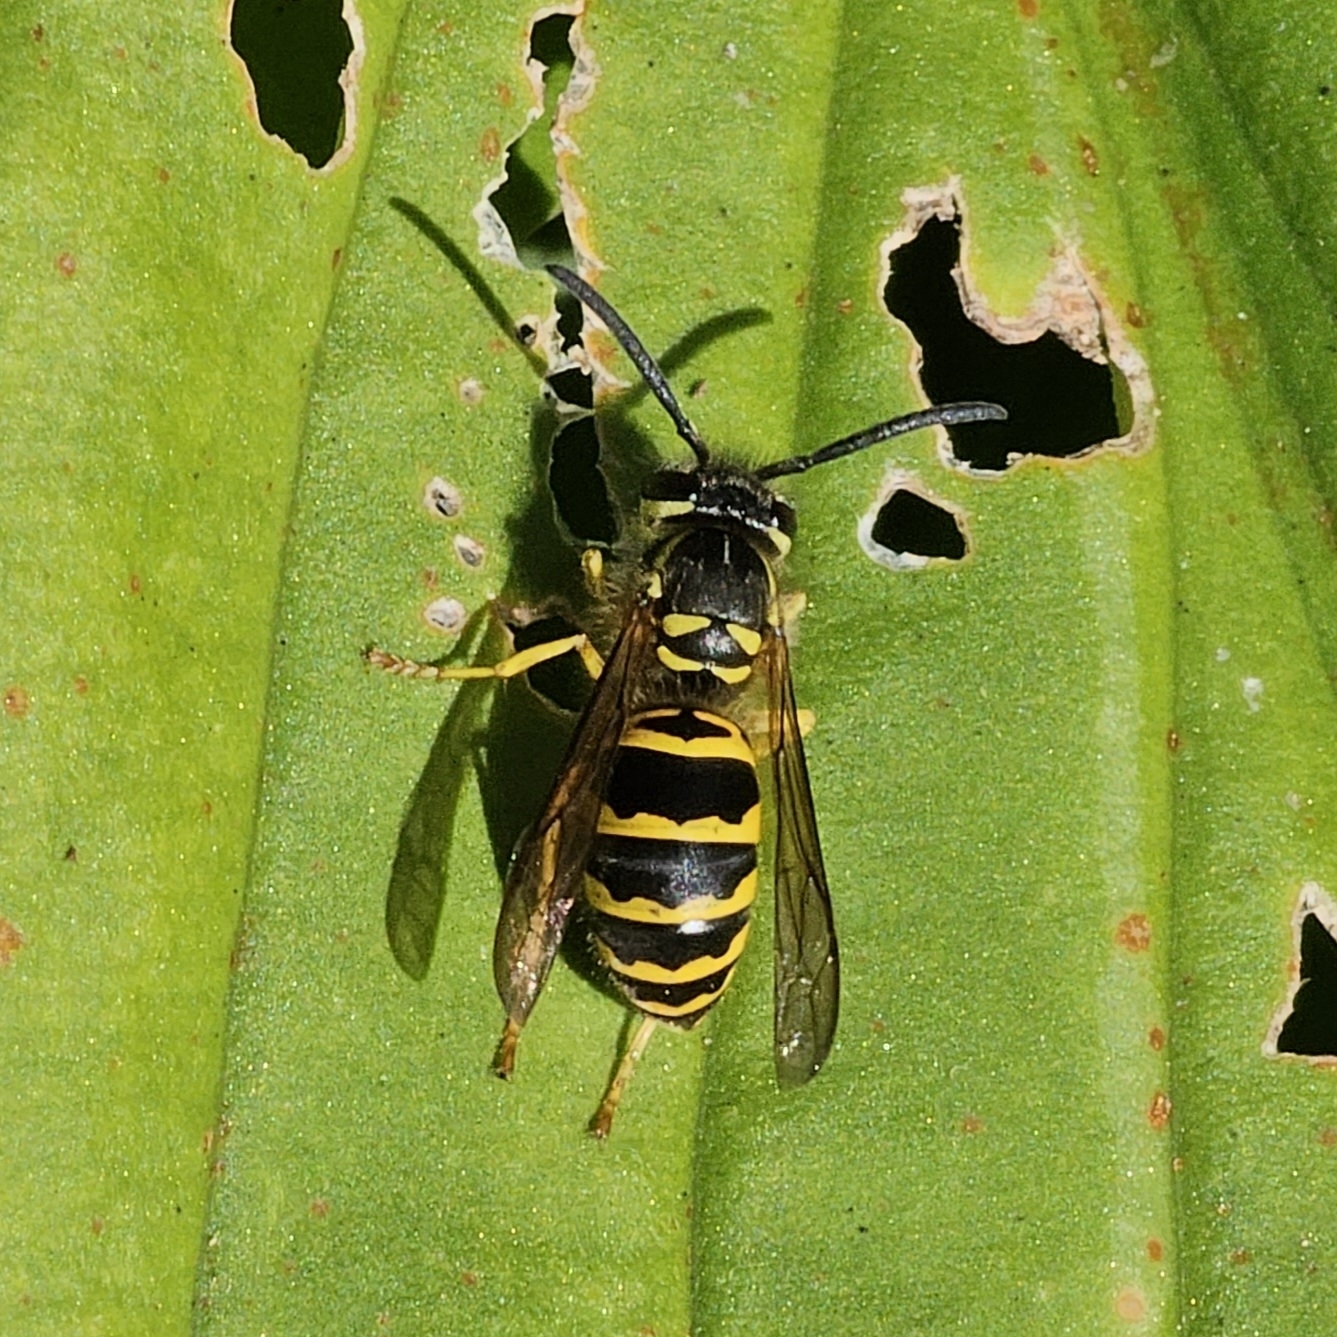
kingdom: Animalia
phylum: Arthropoda
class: Insecta
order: Hymenoptera
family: Vespidae
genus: Vespula
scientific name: Vespula maculifrons
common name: Eastern yellowjacket
